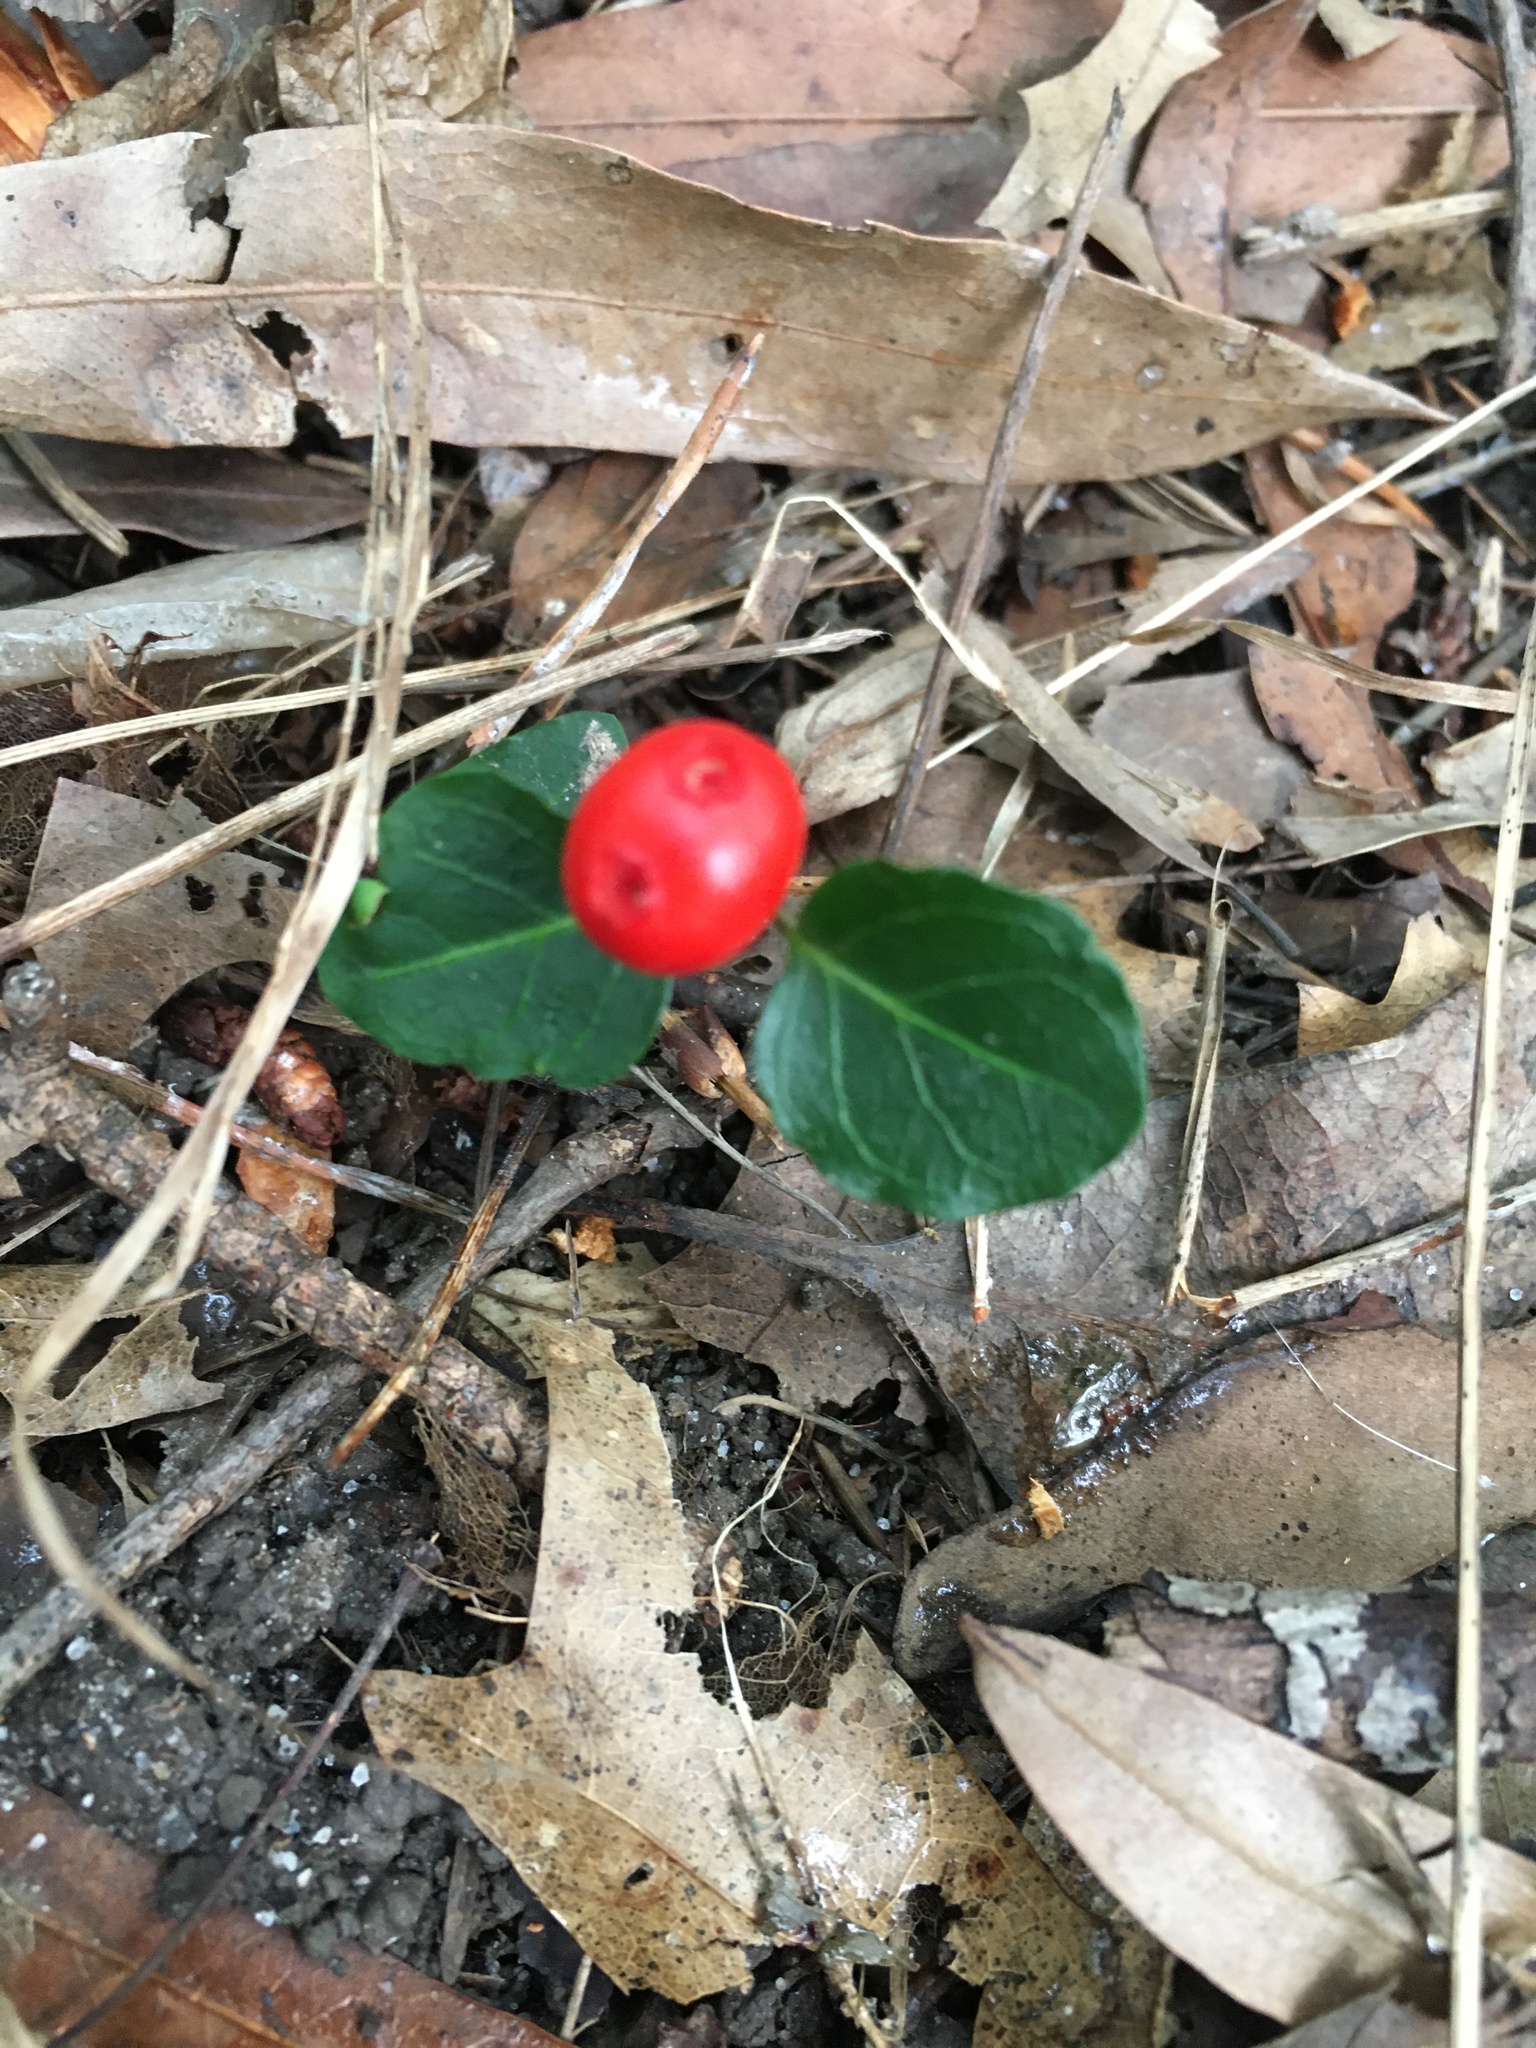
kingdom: Plantae
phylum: Tracheophyta
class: Magnoliopsida
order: Gentianales
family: Rubiaceae
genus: Mitchella
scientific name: Mitchella repens
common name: Partridge-berry
